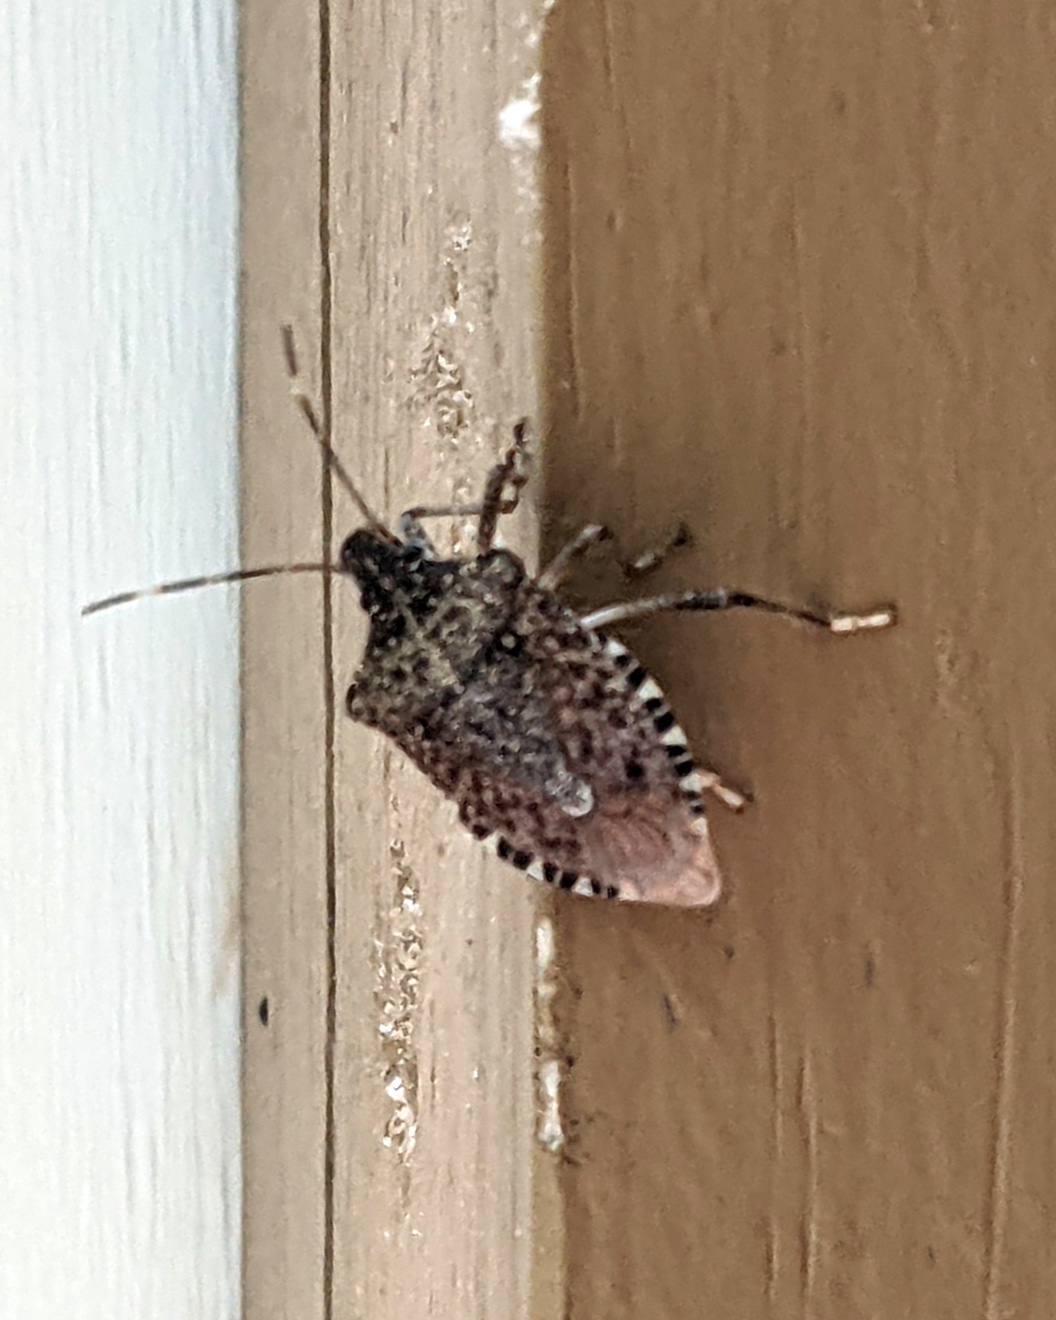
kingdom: Animalia
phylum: Arthropoda
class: Insecta
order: Hemiptera
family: Pentatomidae
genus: Halyomorpha
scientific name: Halyomorpha halys
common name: Brown marmorated stink bug
